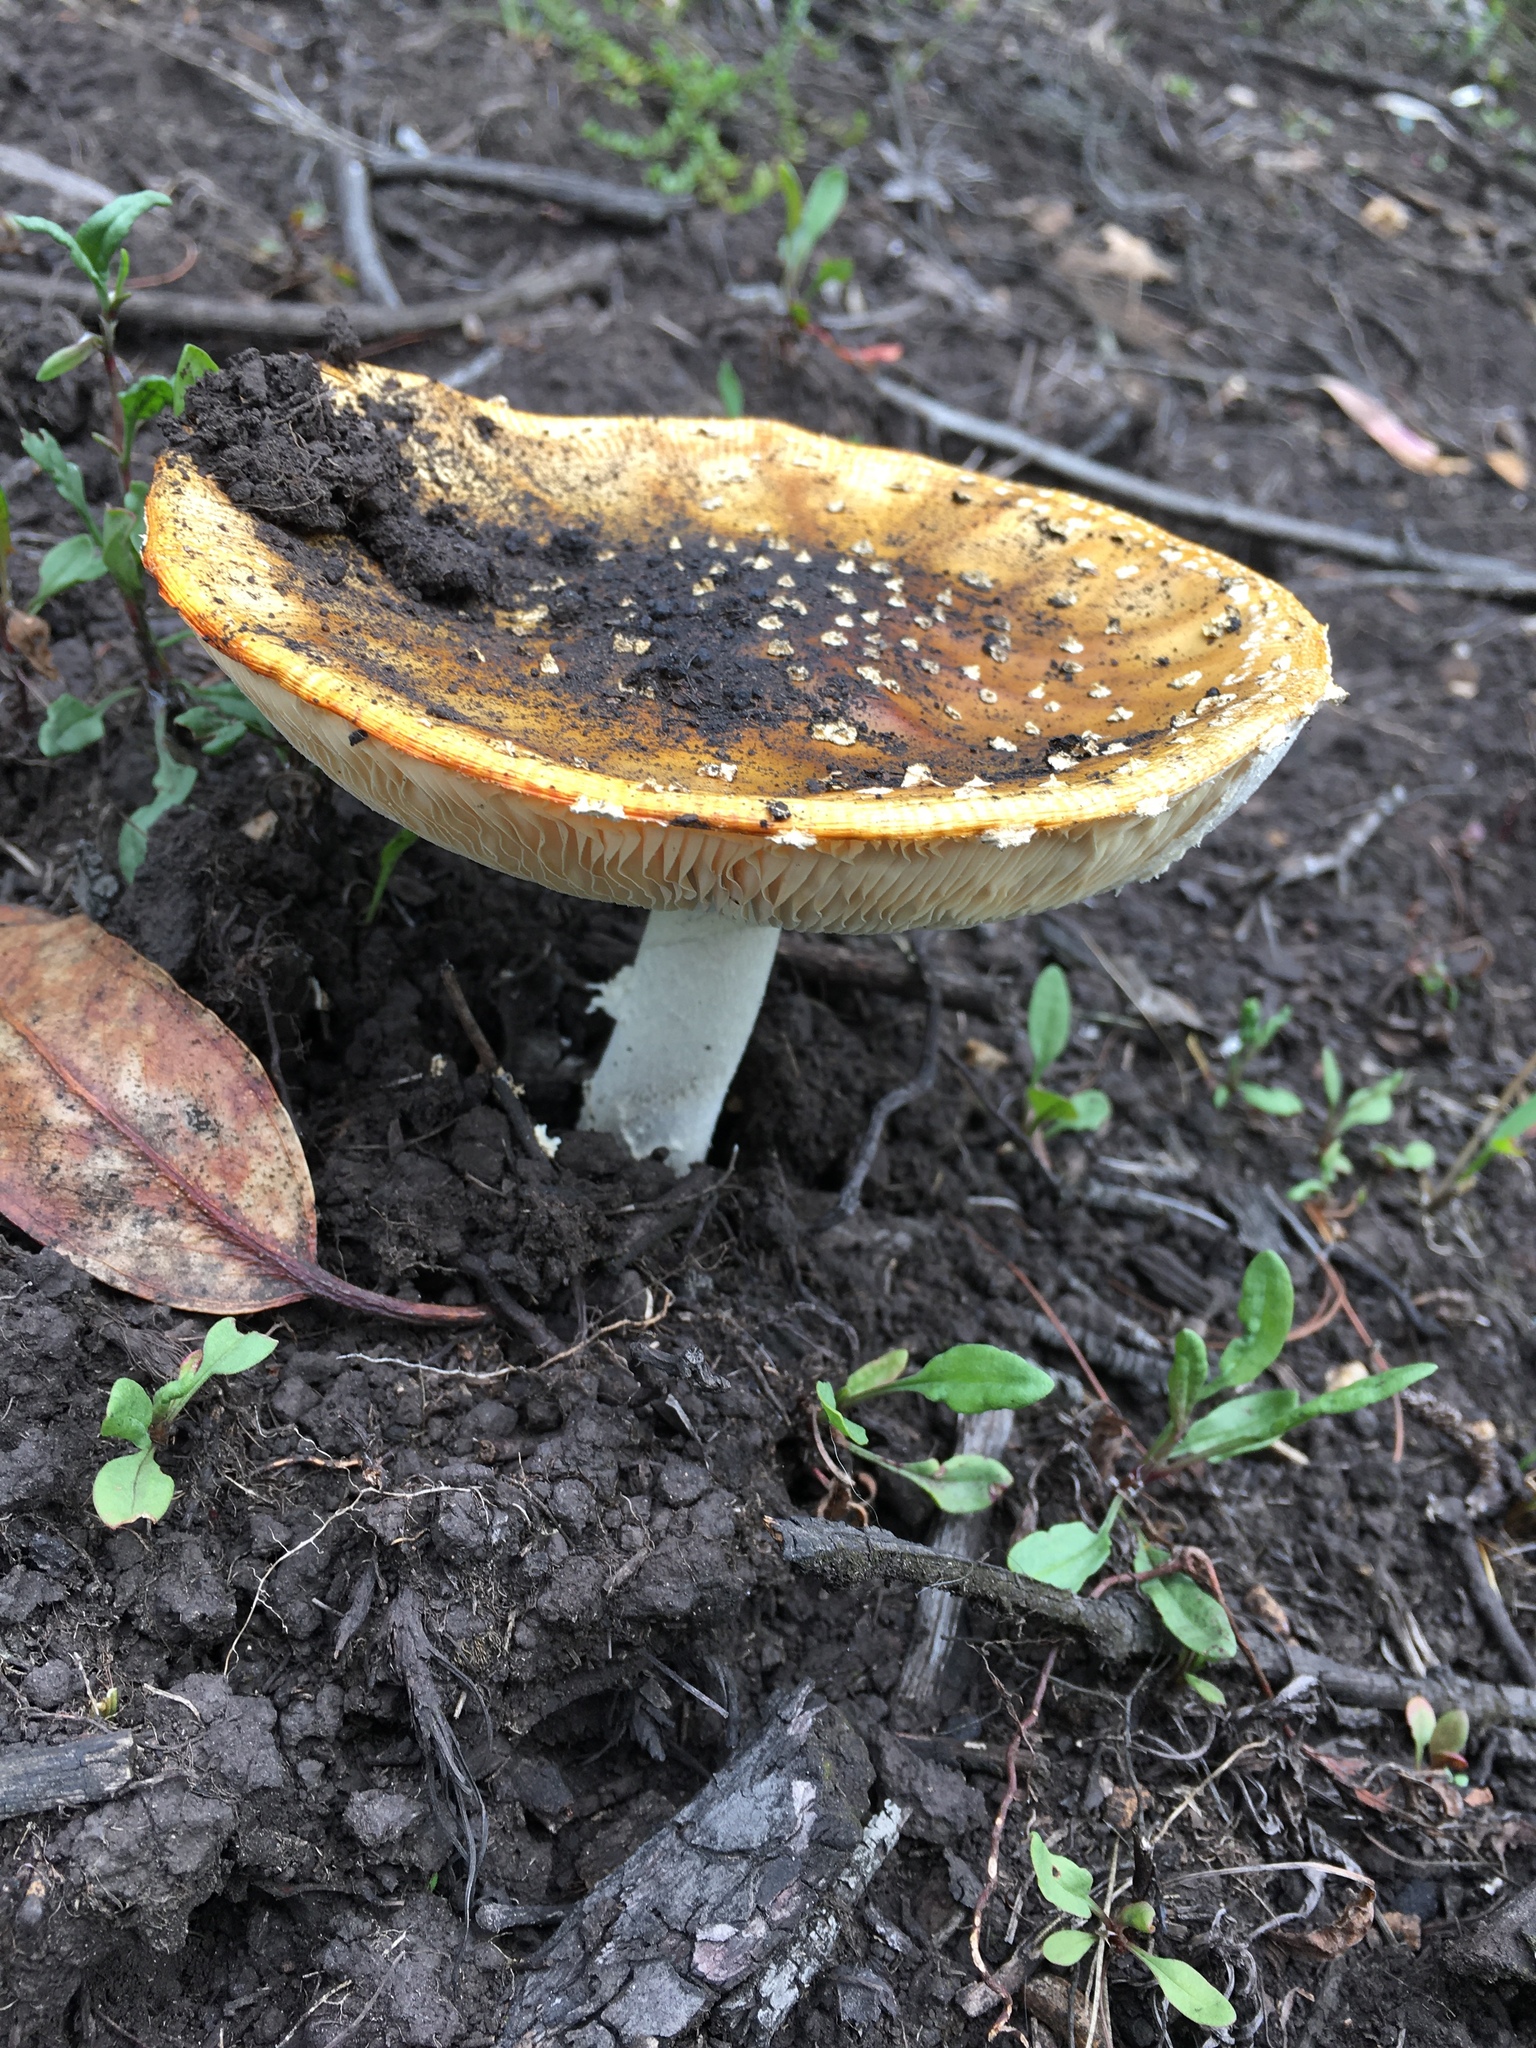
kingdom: Fungi
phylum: Basidiomycota
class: Agaricomycetes
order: Agaricales
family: Amanitaceae
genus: Amanita
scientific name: Amanita muscaria
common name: Fly agaric
